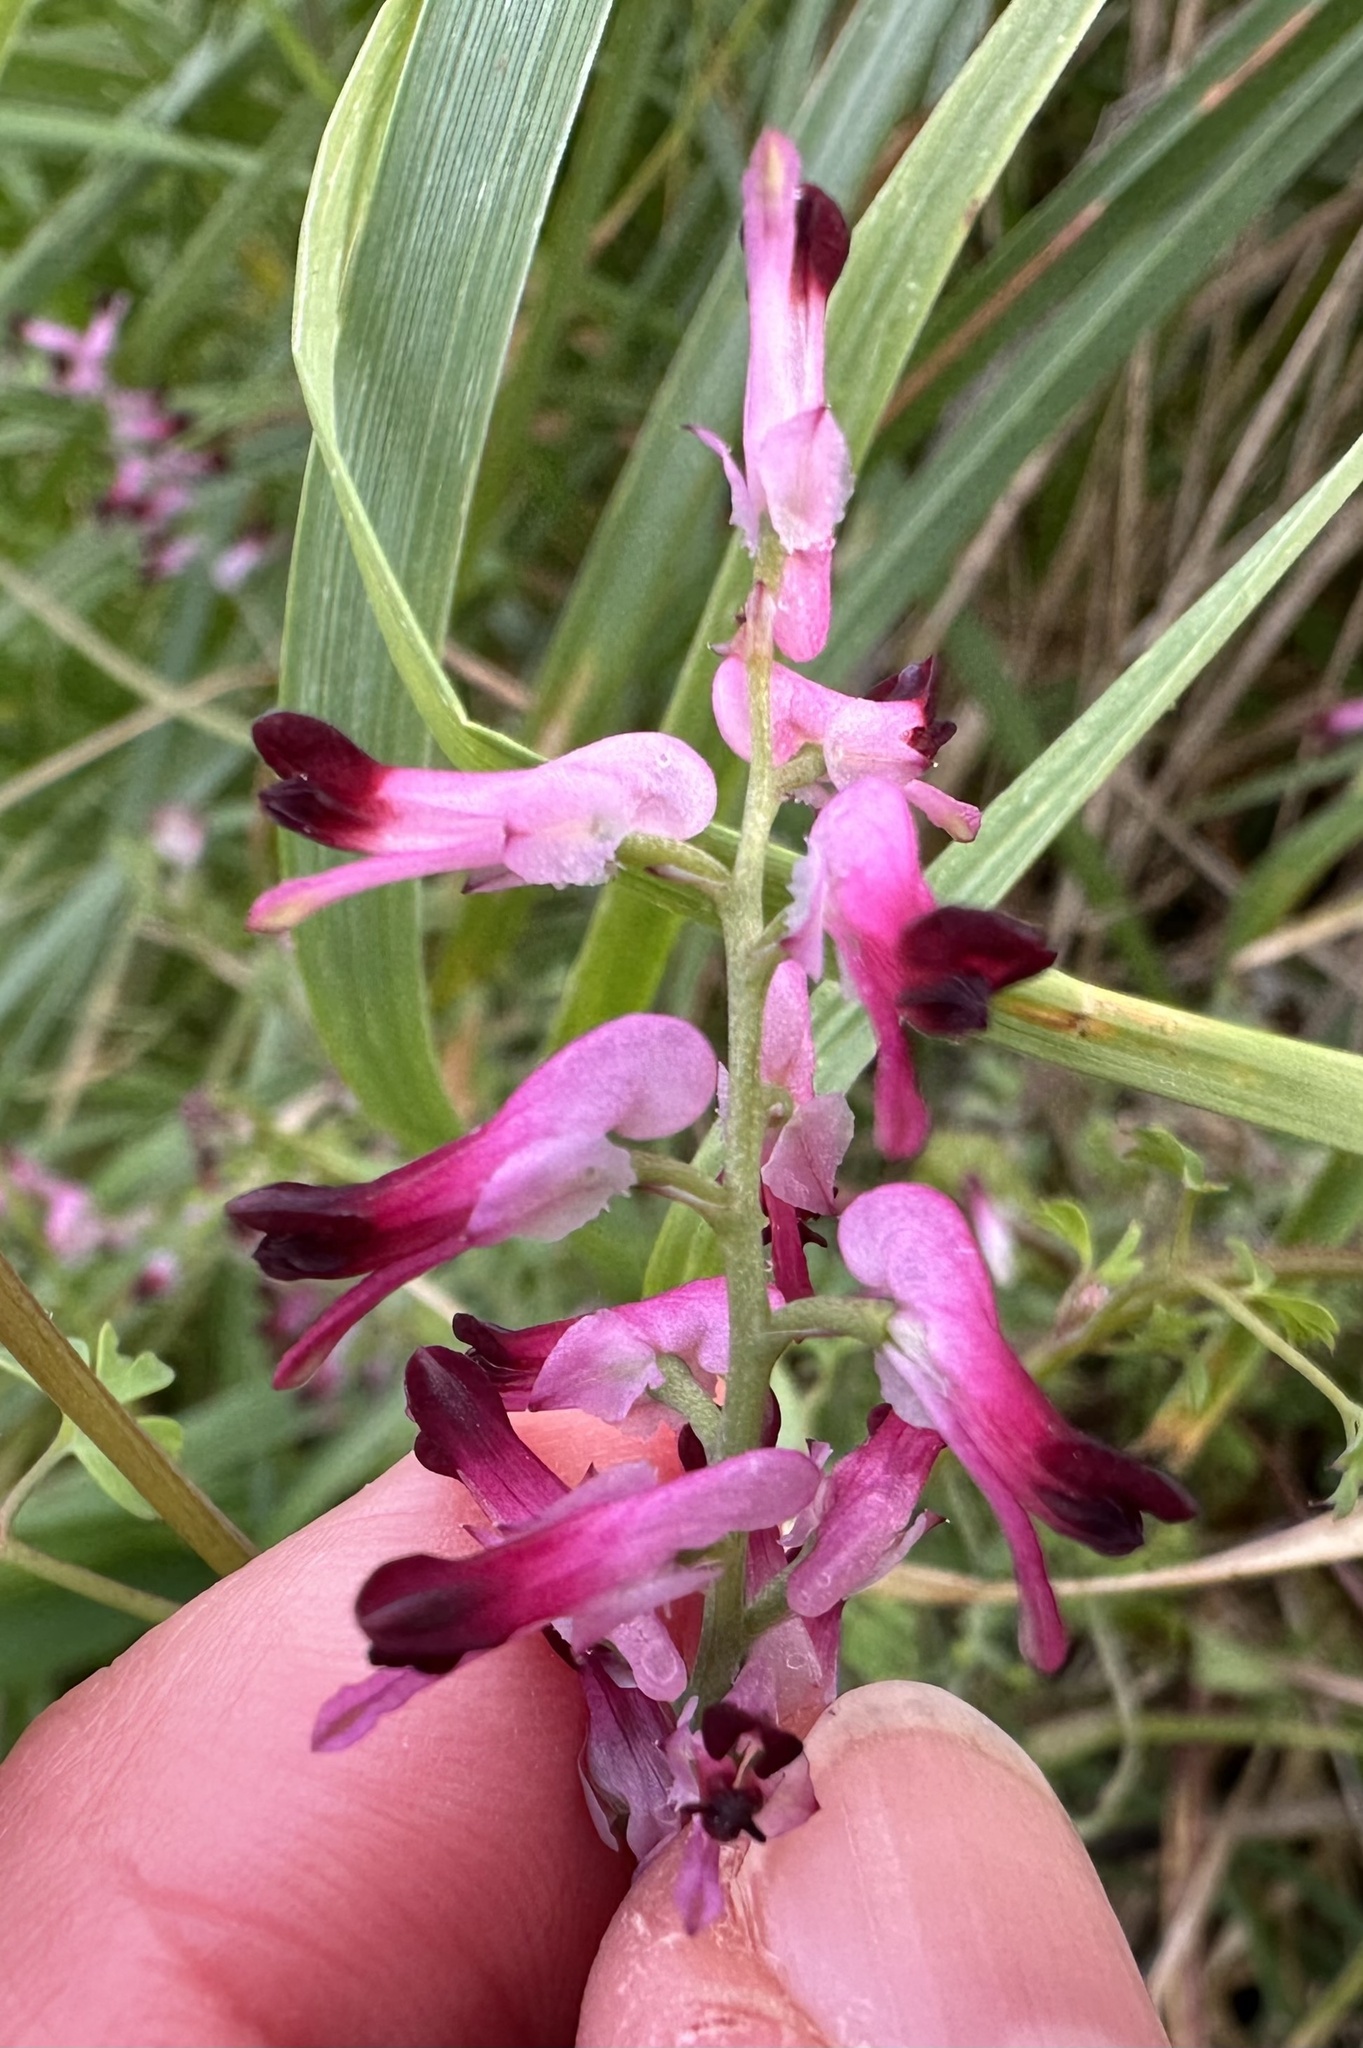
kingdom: Plantae
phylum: Tracheophyta
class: Magnoliopsida
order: Ranunculales
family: Papaveraceae
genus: Fumaria
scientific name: Fumaria reuteri
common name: Martin's ramping-fumitory
